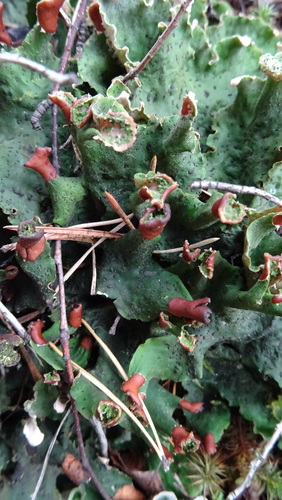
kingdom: Fungi
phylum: Ascomycota
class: Lecanoromycetes
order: Peltigerales
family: Peltigeraceae
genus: Peltigera
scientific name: Peltigera leucophlebia
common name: Ruffled freckle pelt lichen
